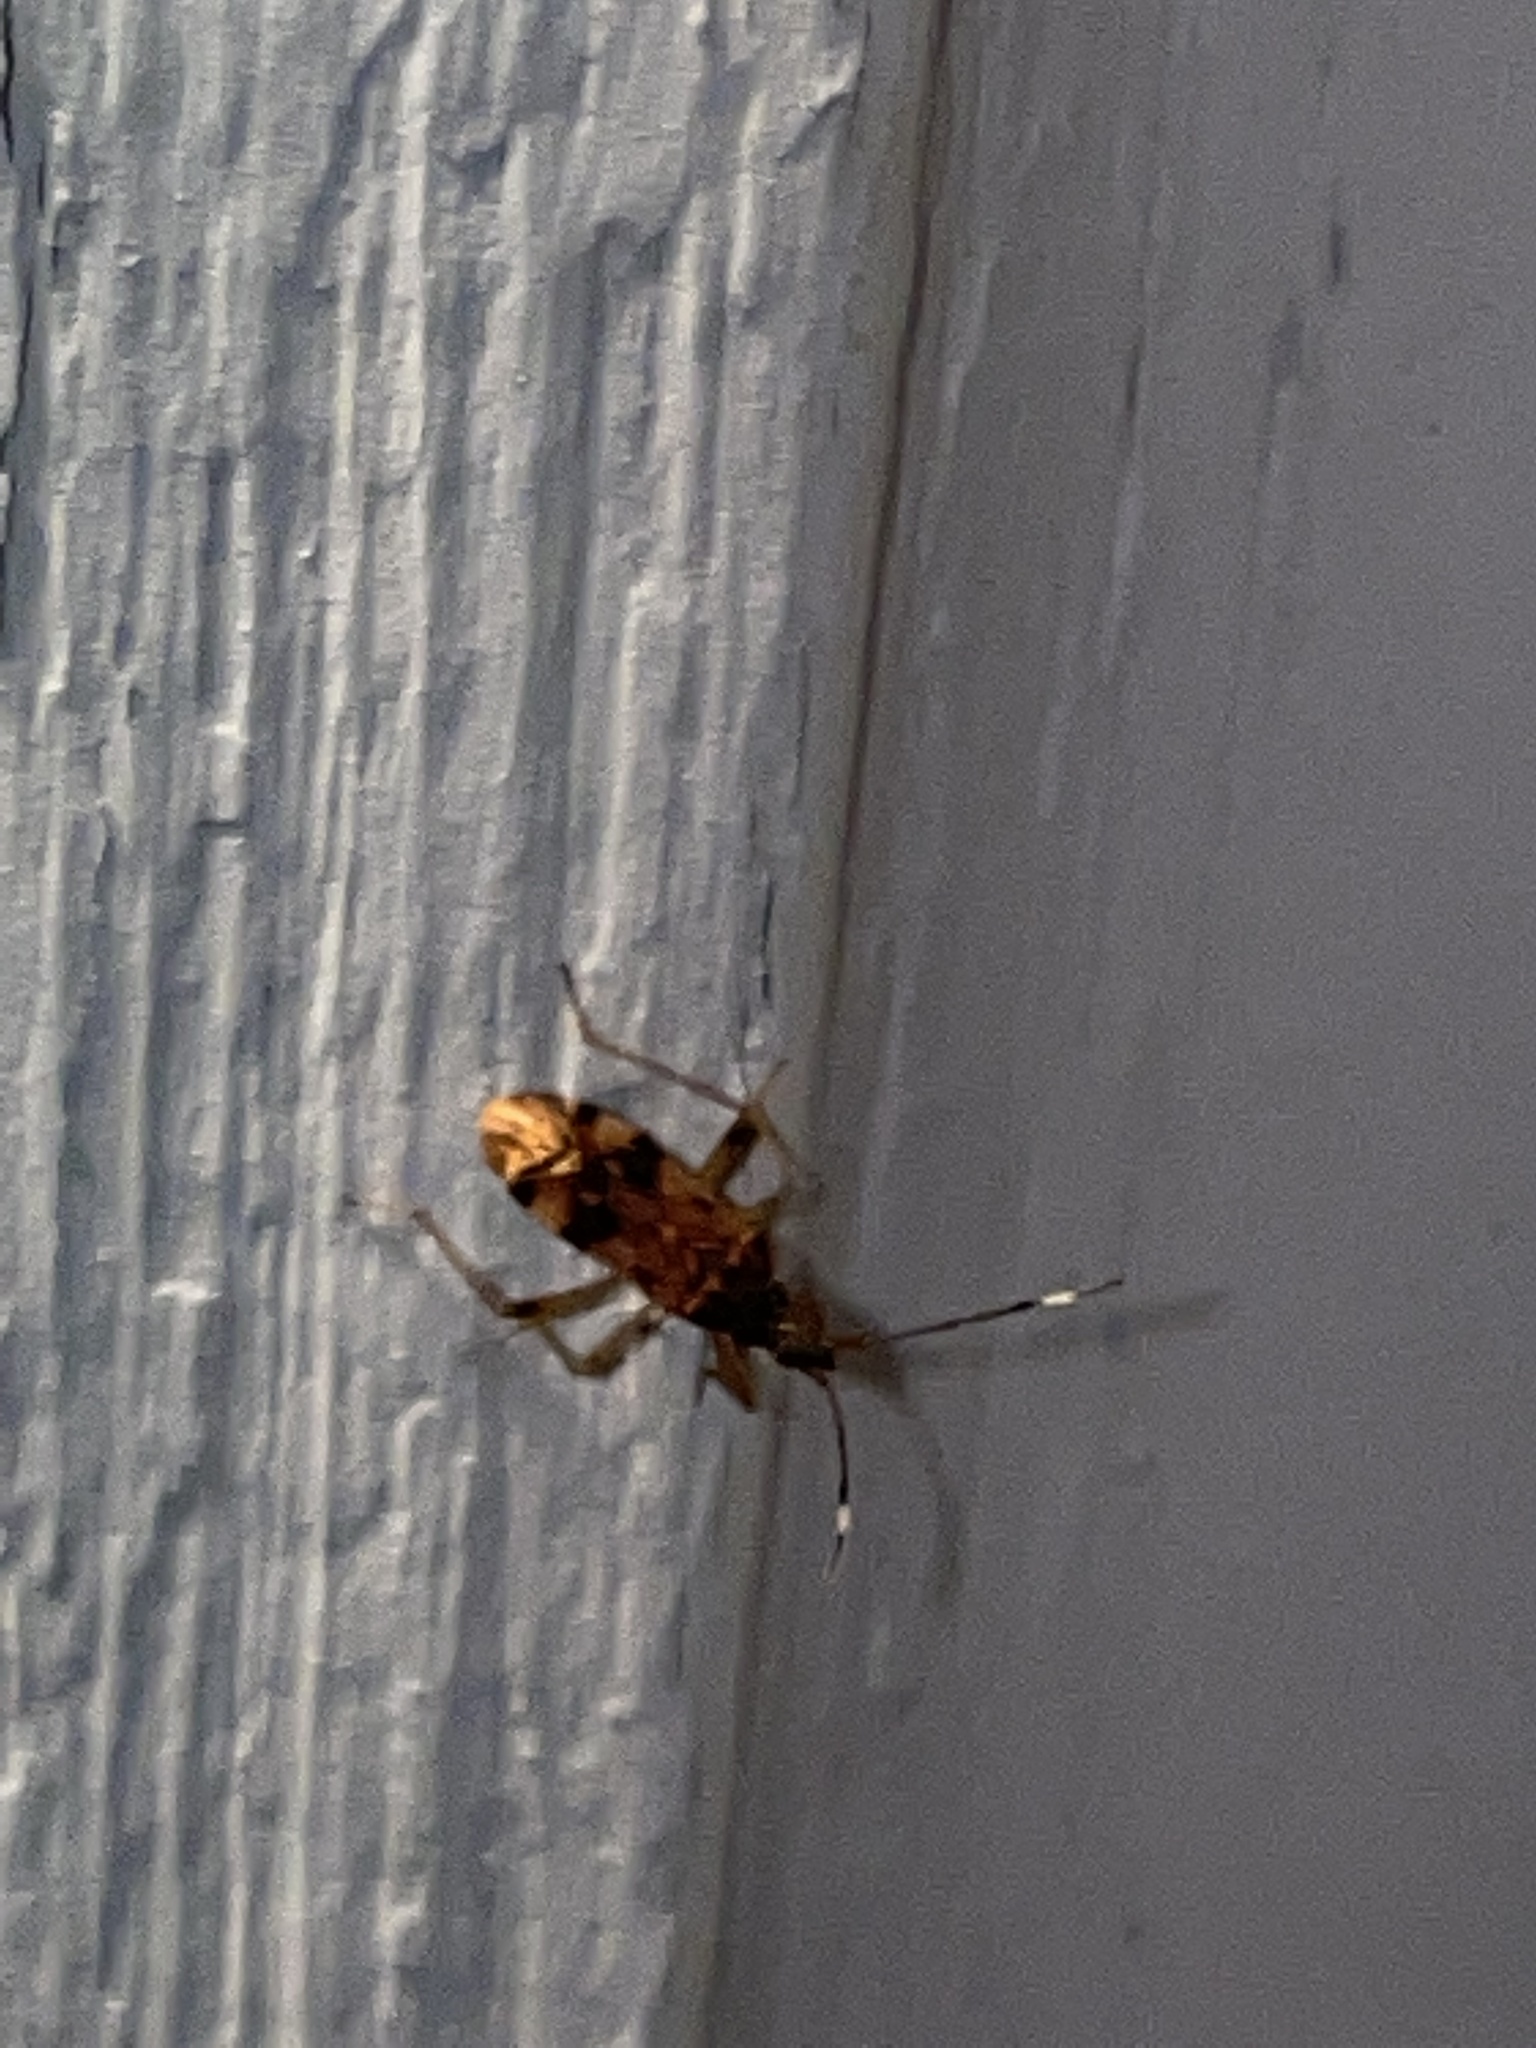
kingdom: Animalia
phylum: Arthropoda
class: Insecta
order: Hemiptera
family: Rhyparochromidae
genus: Ozophora
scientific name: Ozophora picturata
